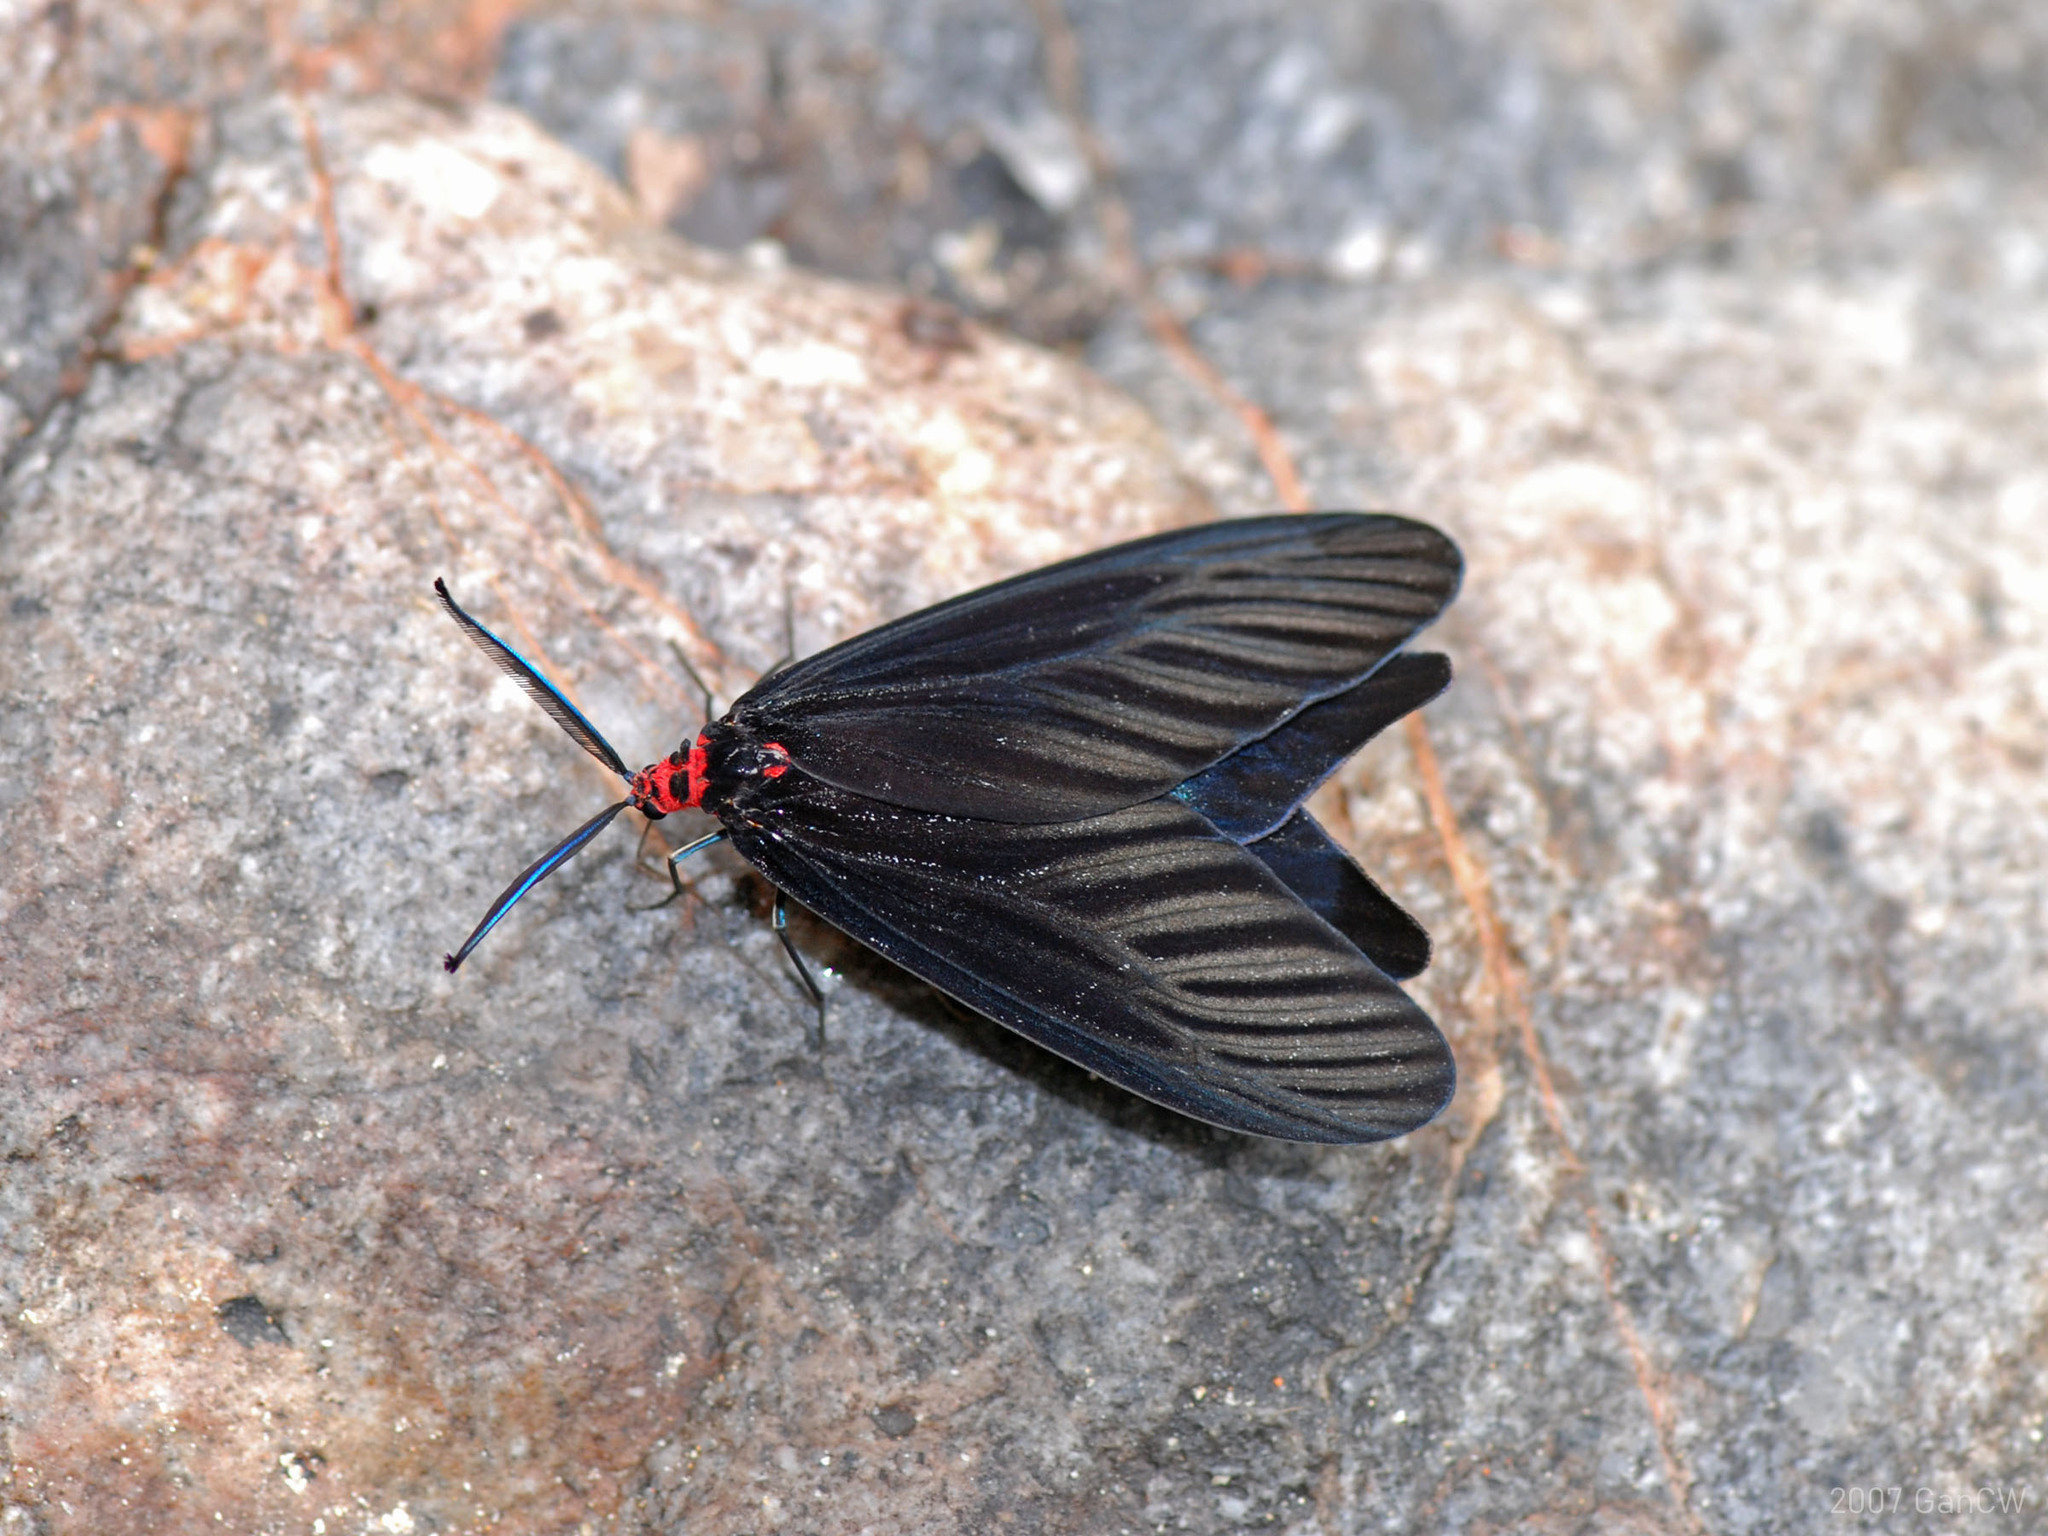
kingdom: Animalia
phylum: Arthropoda
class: Insecta
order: Lepidoptera
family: Zygaenidae
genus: Histia
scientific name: Histia flabellicornis
